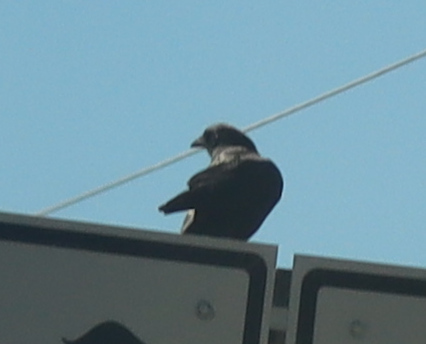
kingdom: Animalia
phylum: Chordata
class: Aves
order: Passeriformes
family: Corvidae
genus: Corvus
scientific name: Corvus brachyrhynchos
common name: American crow
